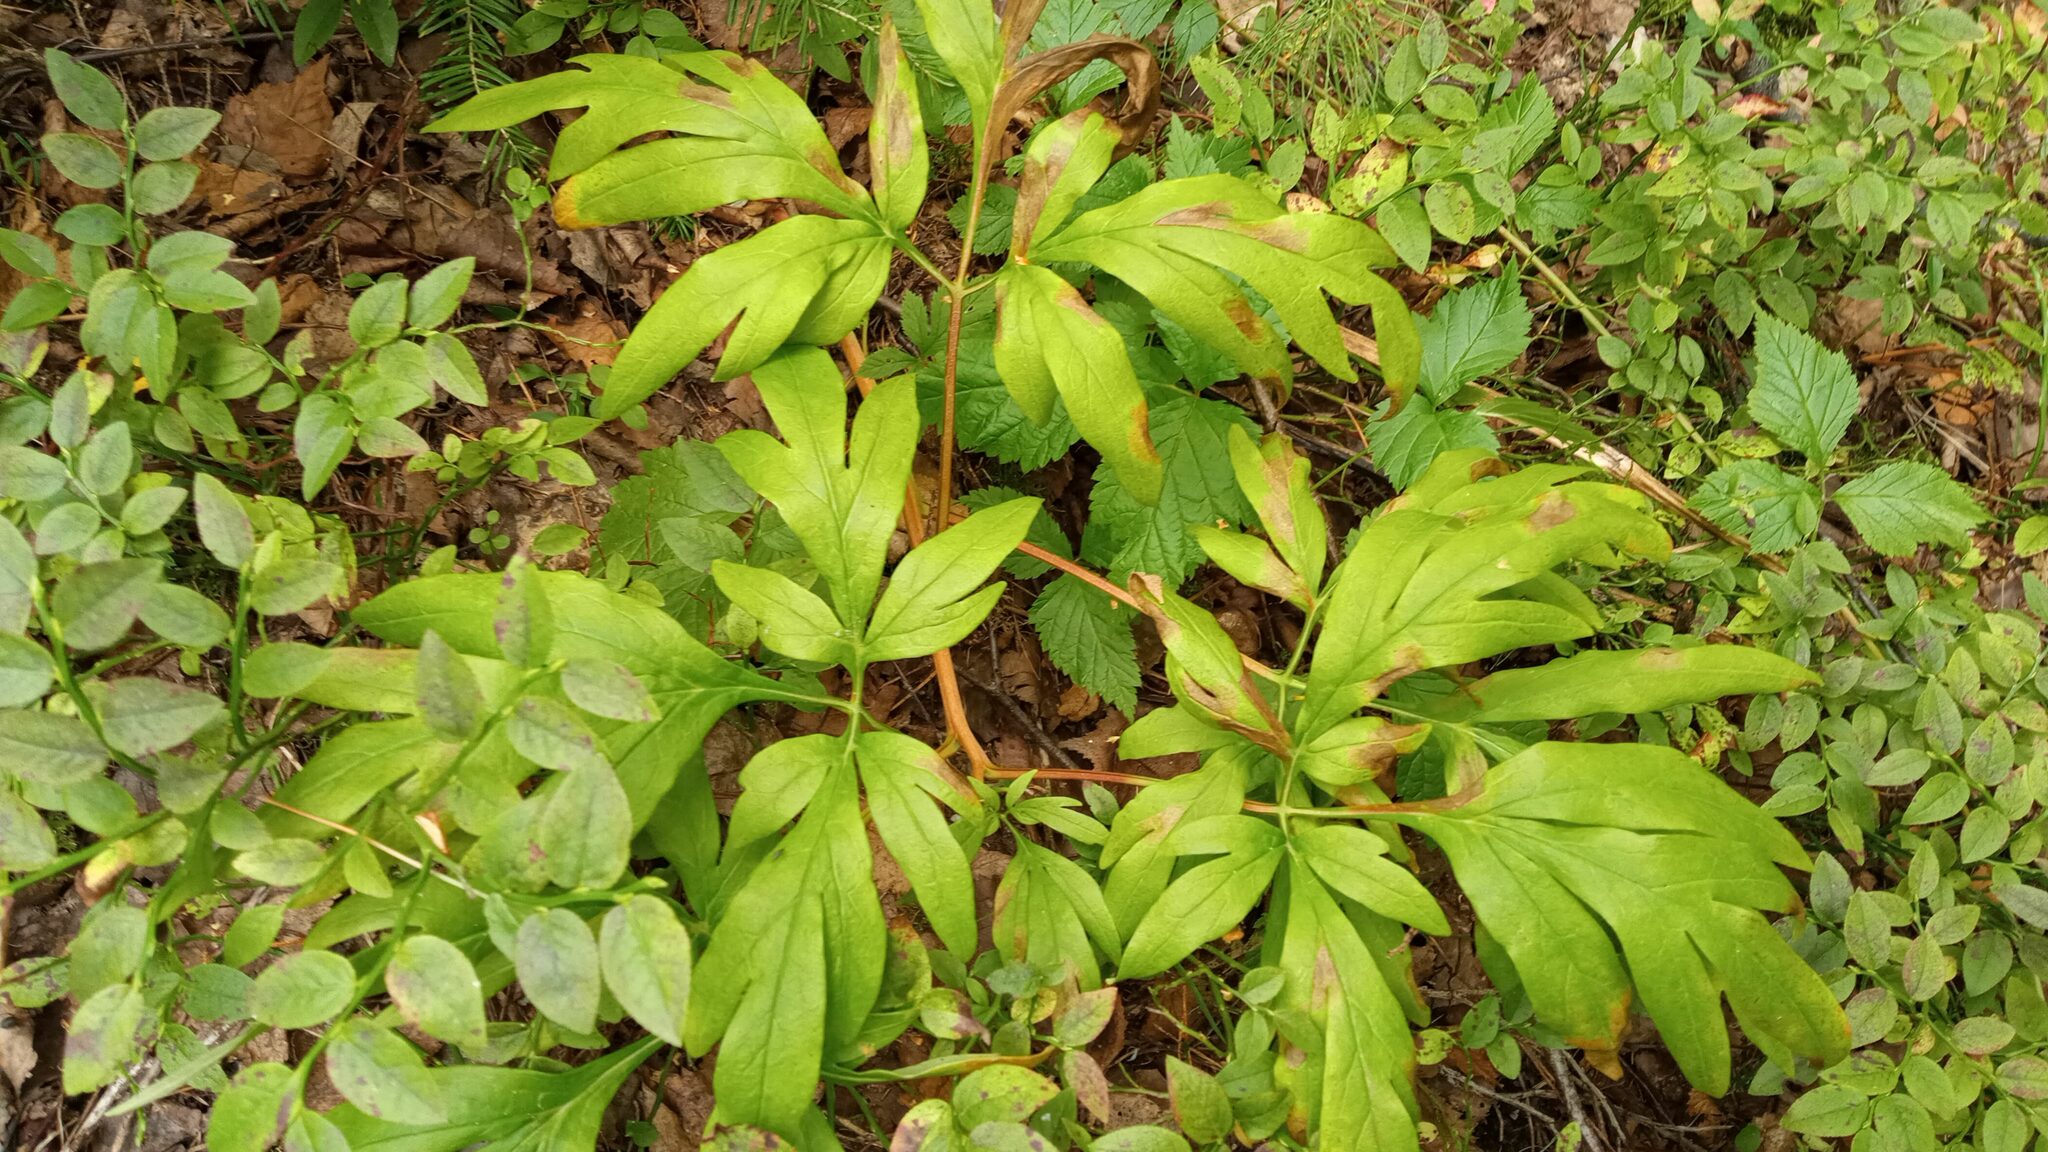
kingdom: Plantae
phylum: Tracheophyta
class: Magnoliopsida
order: Saxifragales
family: Paeoniaceae
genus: Paeonia
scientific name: Paeonia anomala
